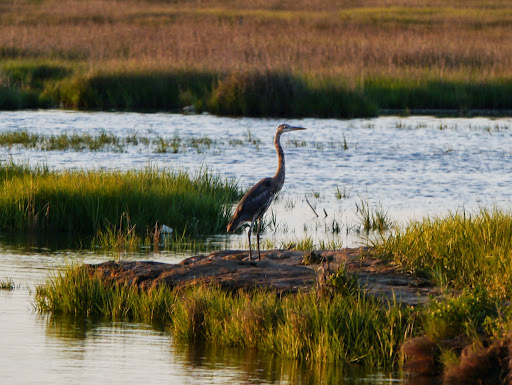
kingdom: Animalia
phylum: Chordata
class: Aves
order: Pelecaniformes
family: Ardeidae
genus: Ardea
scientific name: Ardea herodias
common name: Great blue heron
